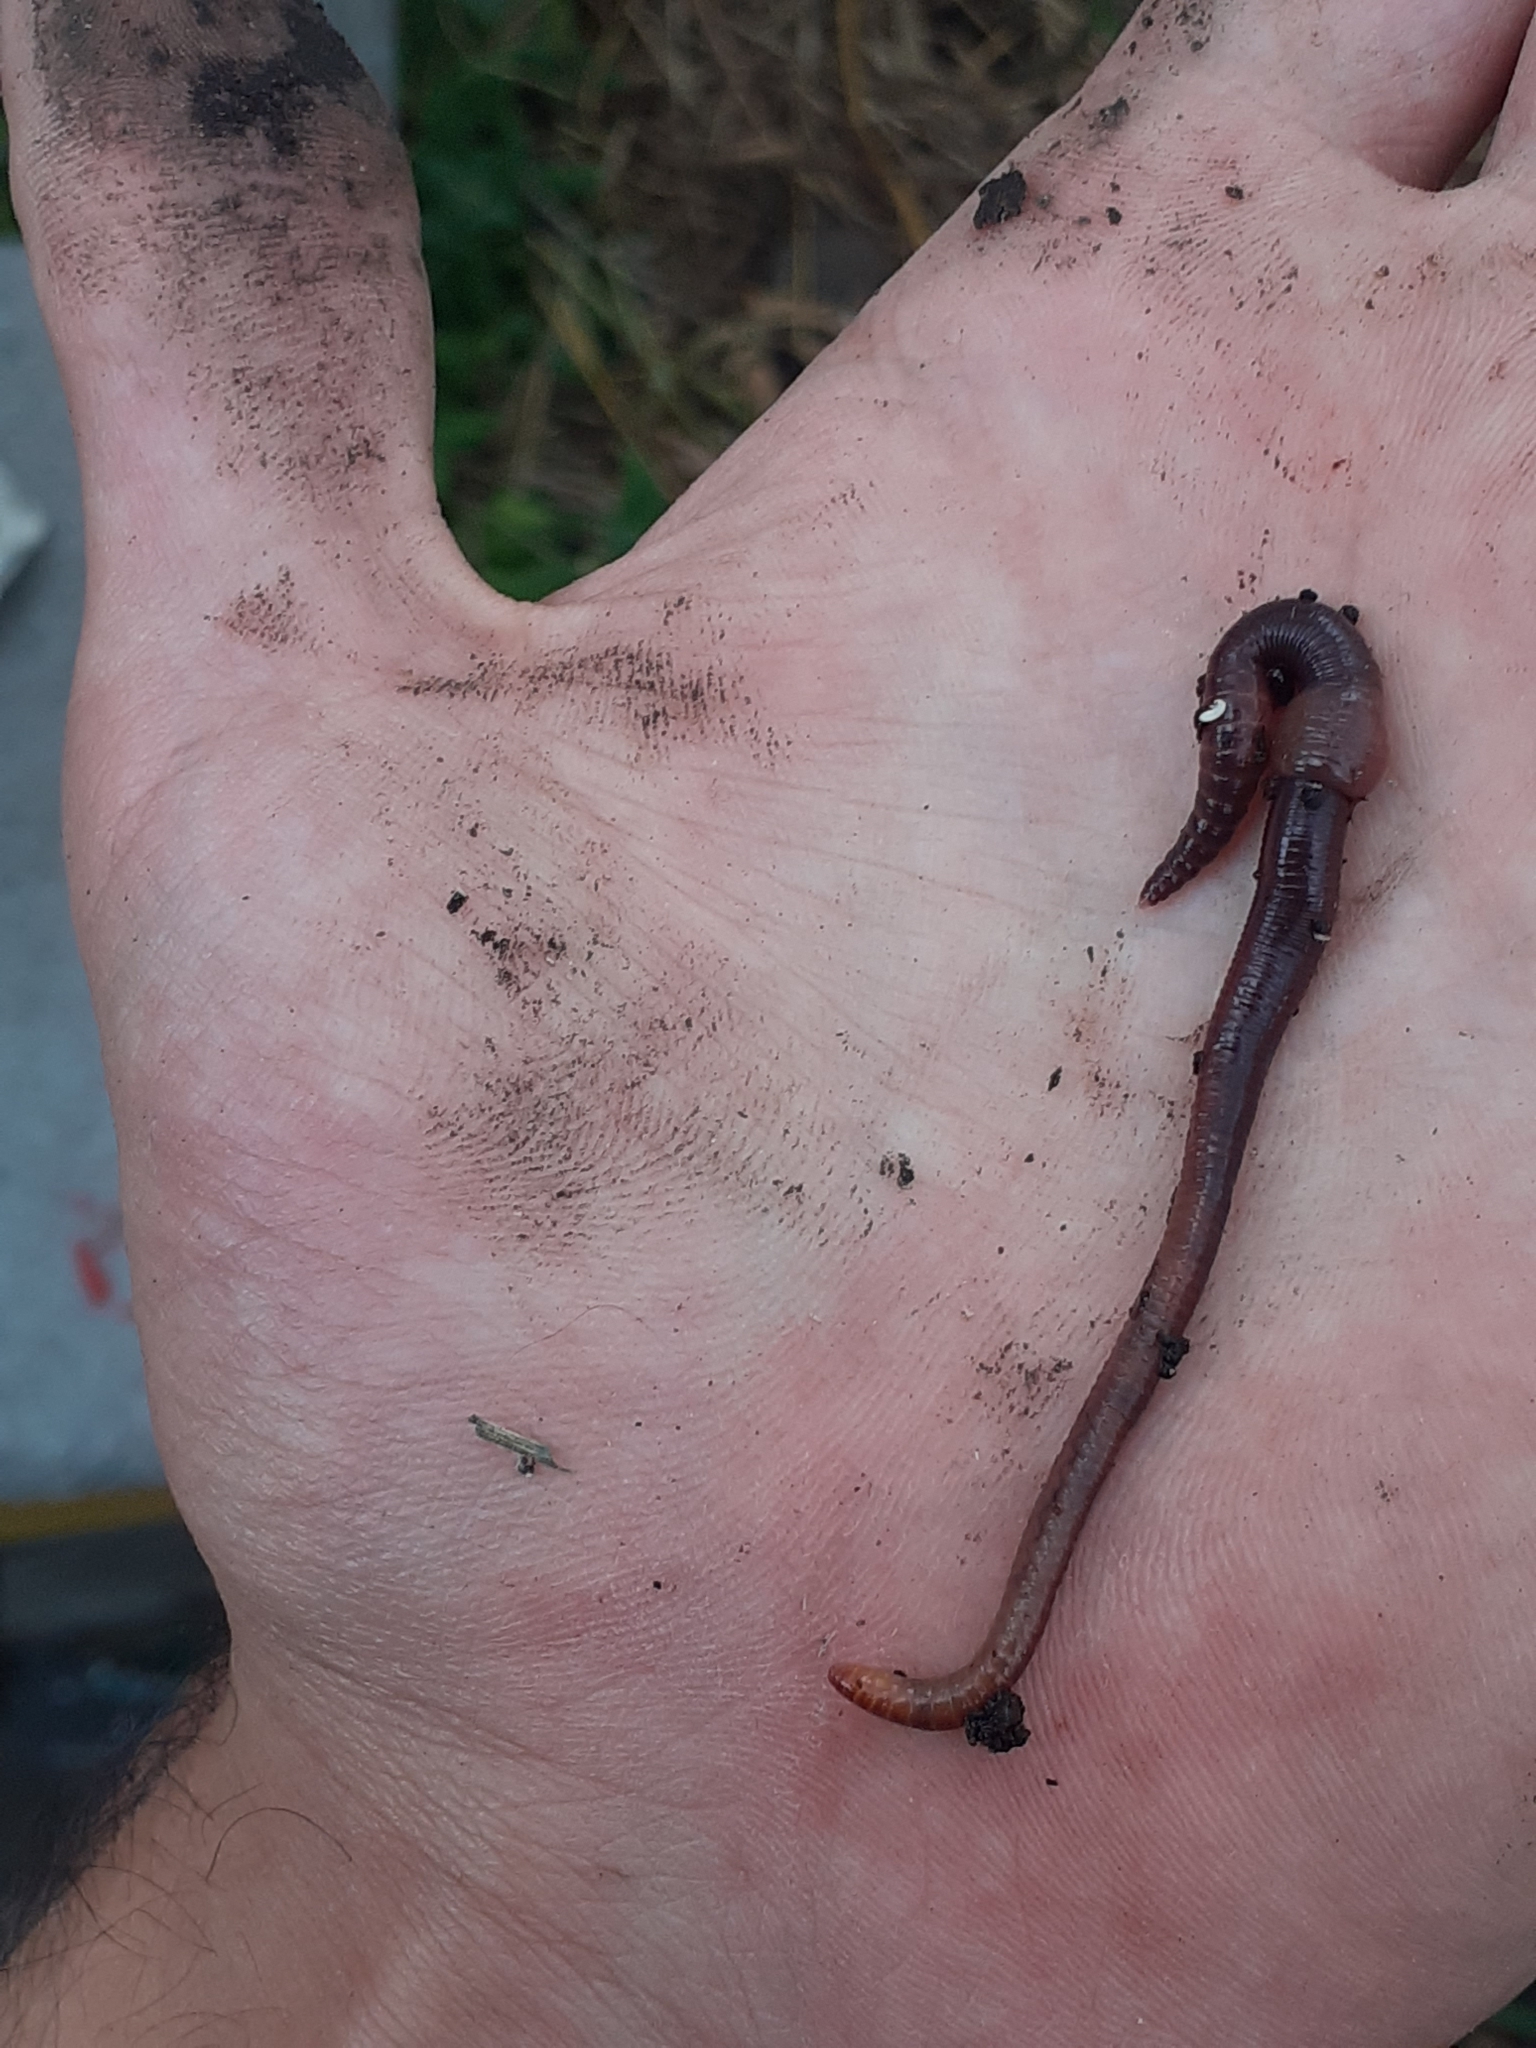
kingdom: Animalia
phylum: Annelida
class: Clitellata
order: Crassiclitellata
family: Lumbricidae
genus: Eisenia
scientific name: Eisenia andrei
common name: Manure worm
